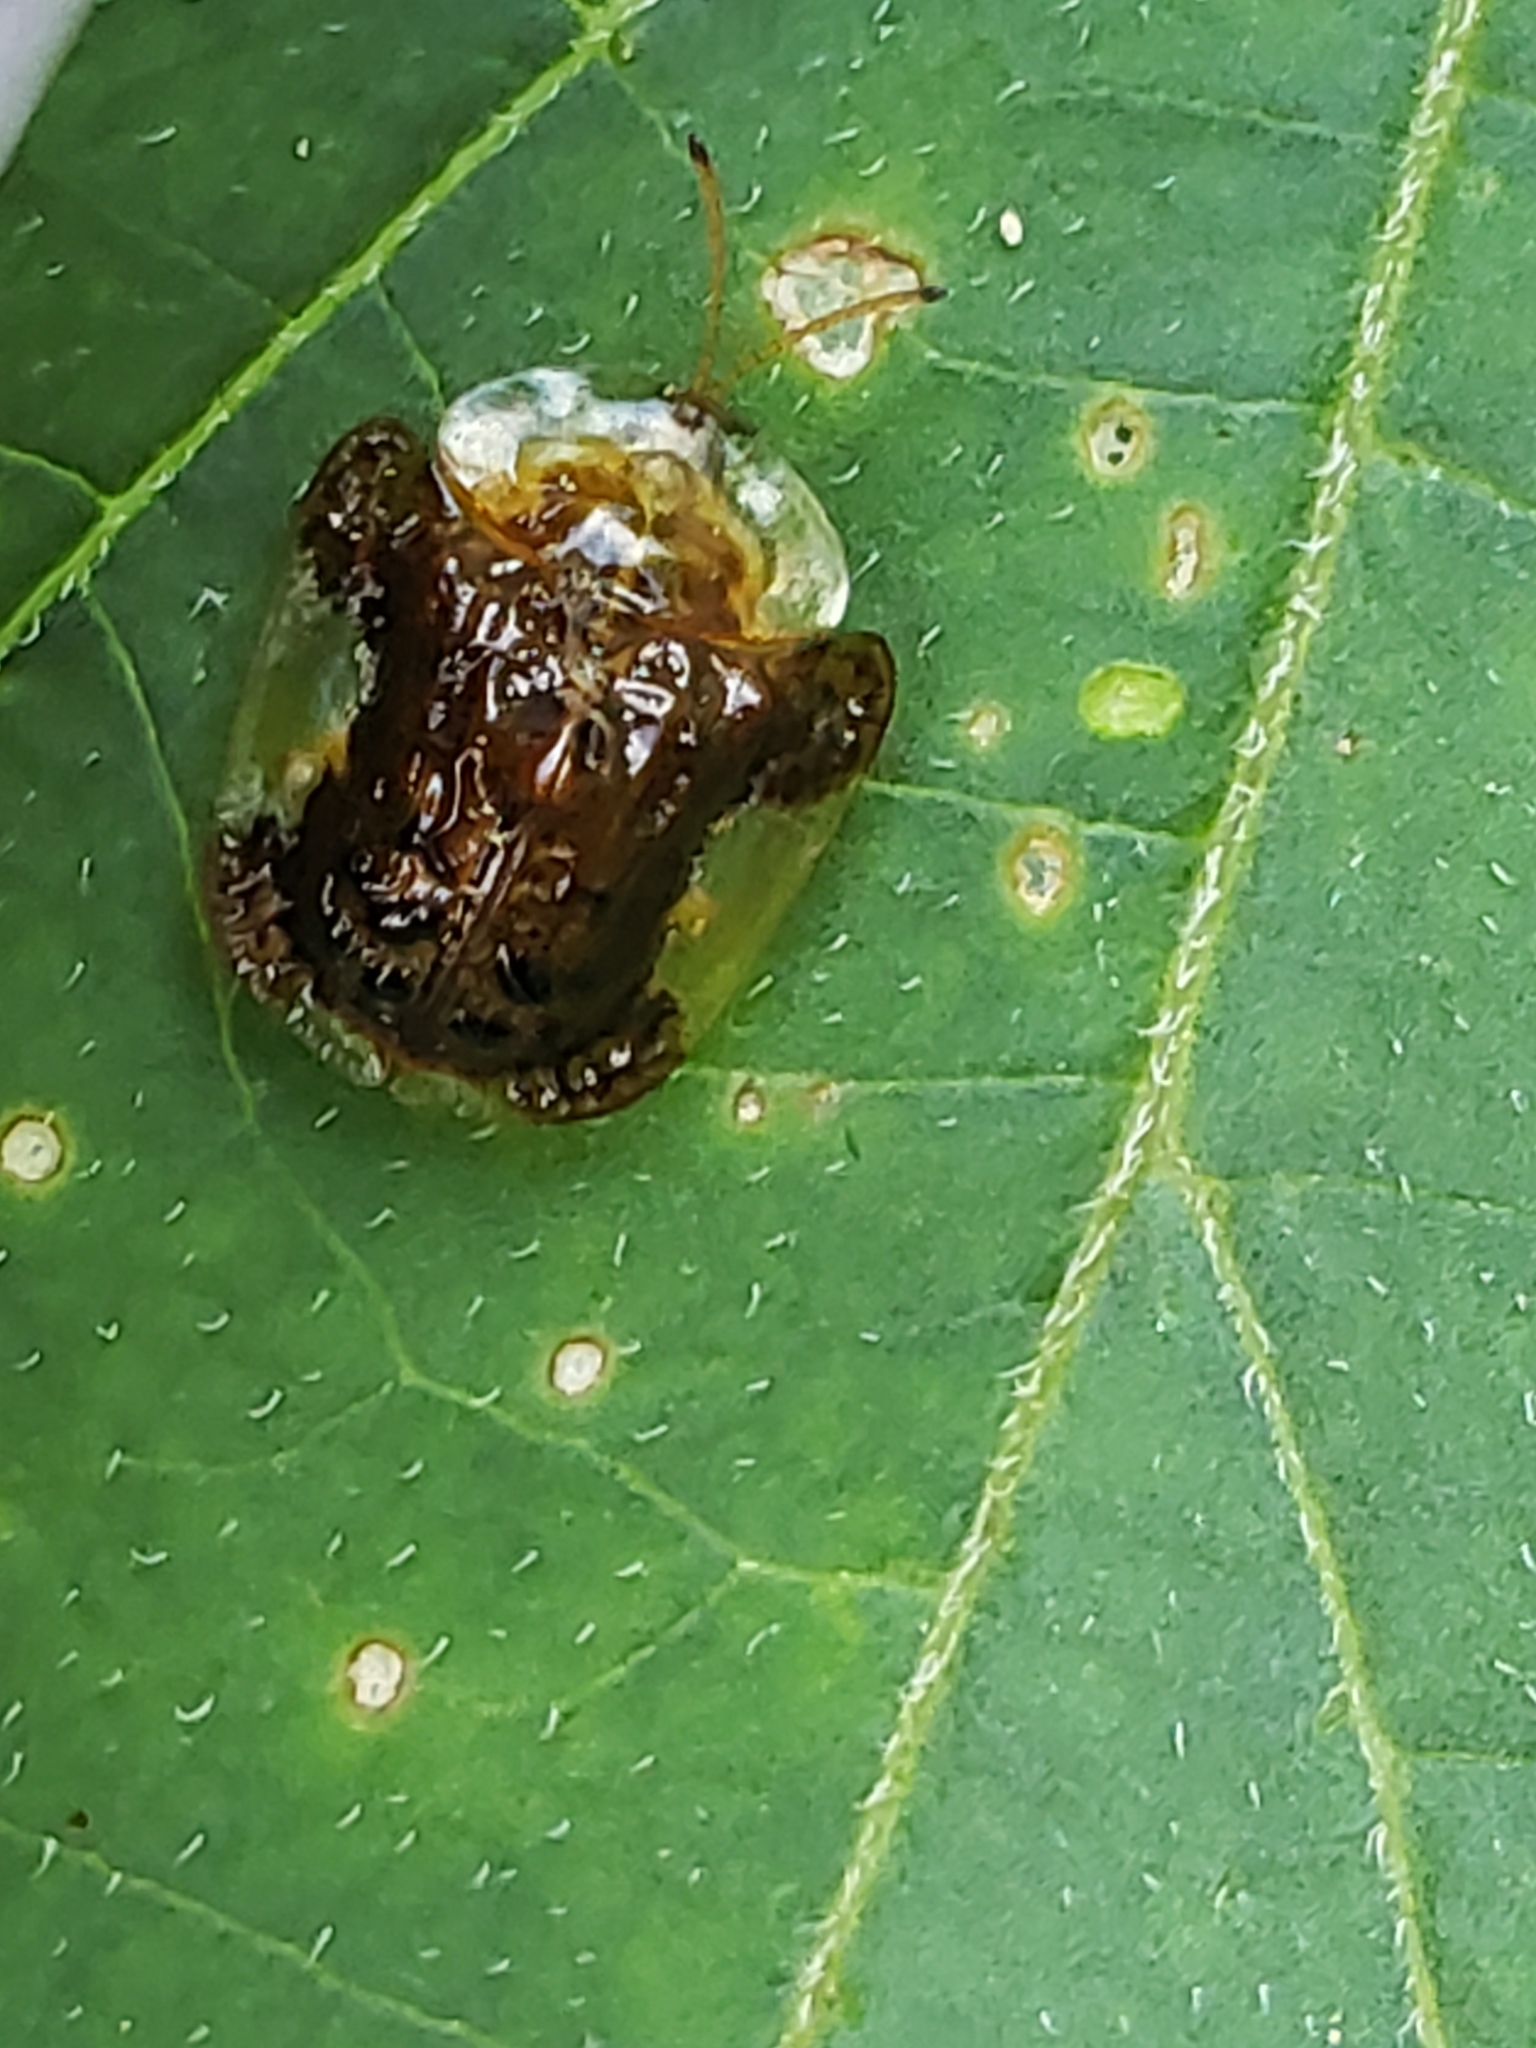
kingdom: Animalia
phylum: Arthropoda
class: Insecta
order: Coleoptera
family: Chrysomelidae
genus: Helocassis
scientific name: Helocassis clavata
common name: Clavate tortoise beetle
